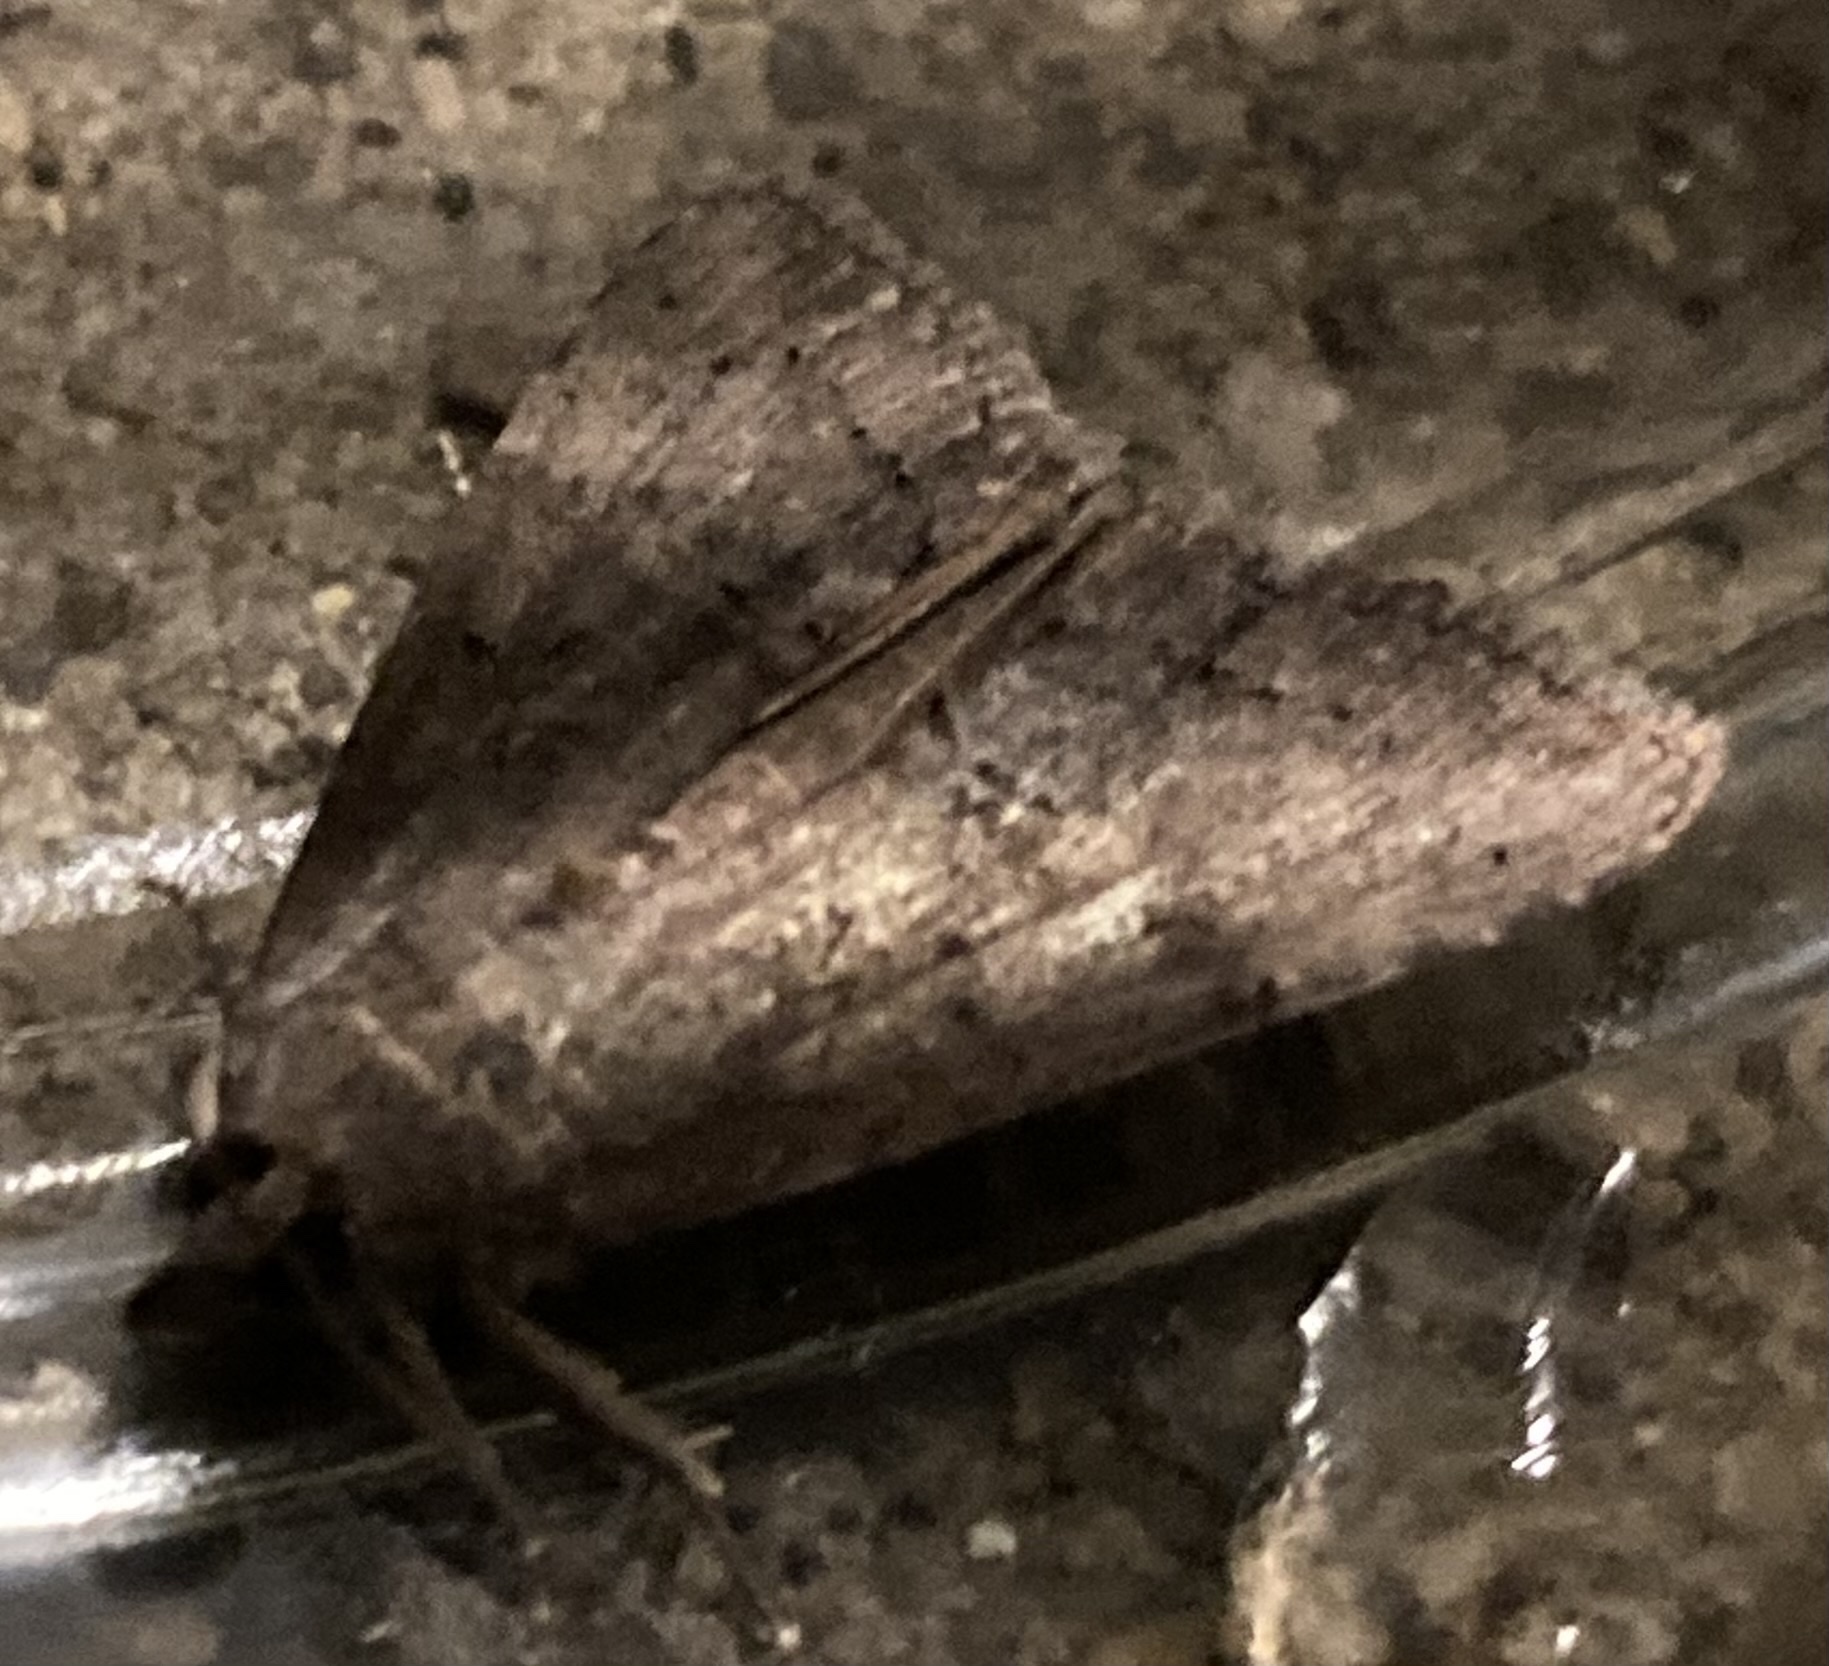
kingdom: Animalia
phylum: Arthropoda
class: Insecta
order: Lepidoptera
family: Erebidae
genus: Hypena
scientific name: Hypena scabra
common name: Green cloverworm
